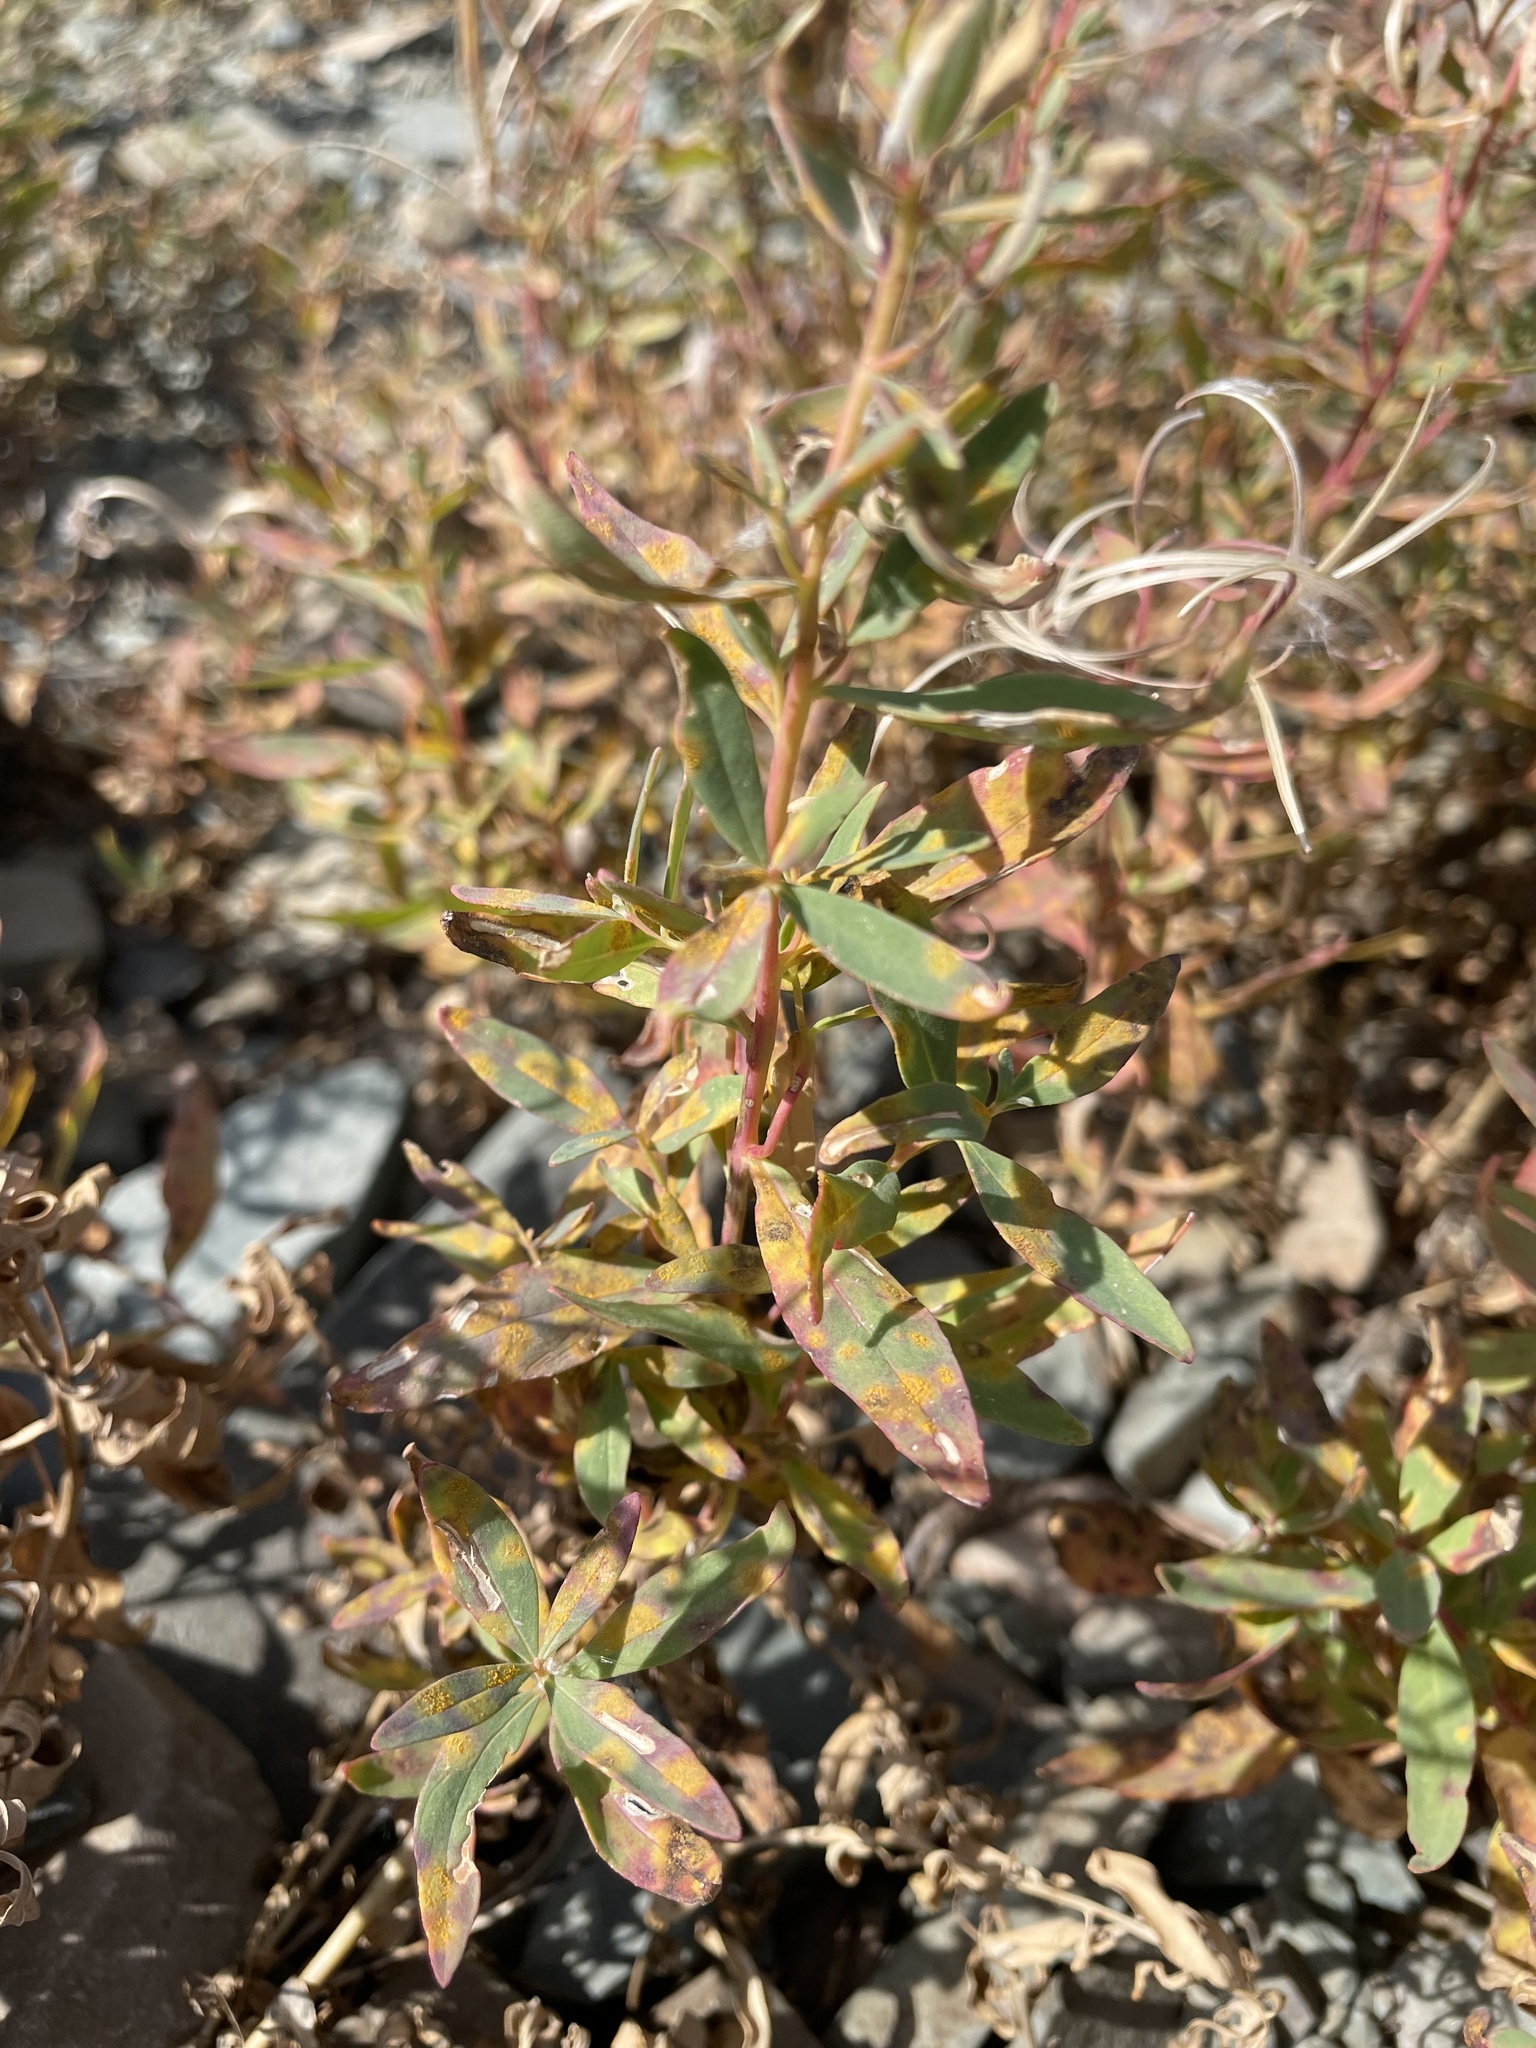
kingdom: Plantae
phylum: Tracheophyta
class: Magnoliopsida
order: Myrtales
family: Onagraceae
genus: Chamaenerion
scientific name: Chamaenerion latifolium
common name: Dwarf fireweed
